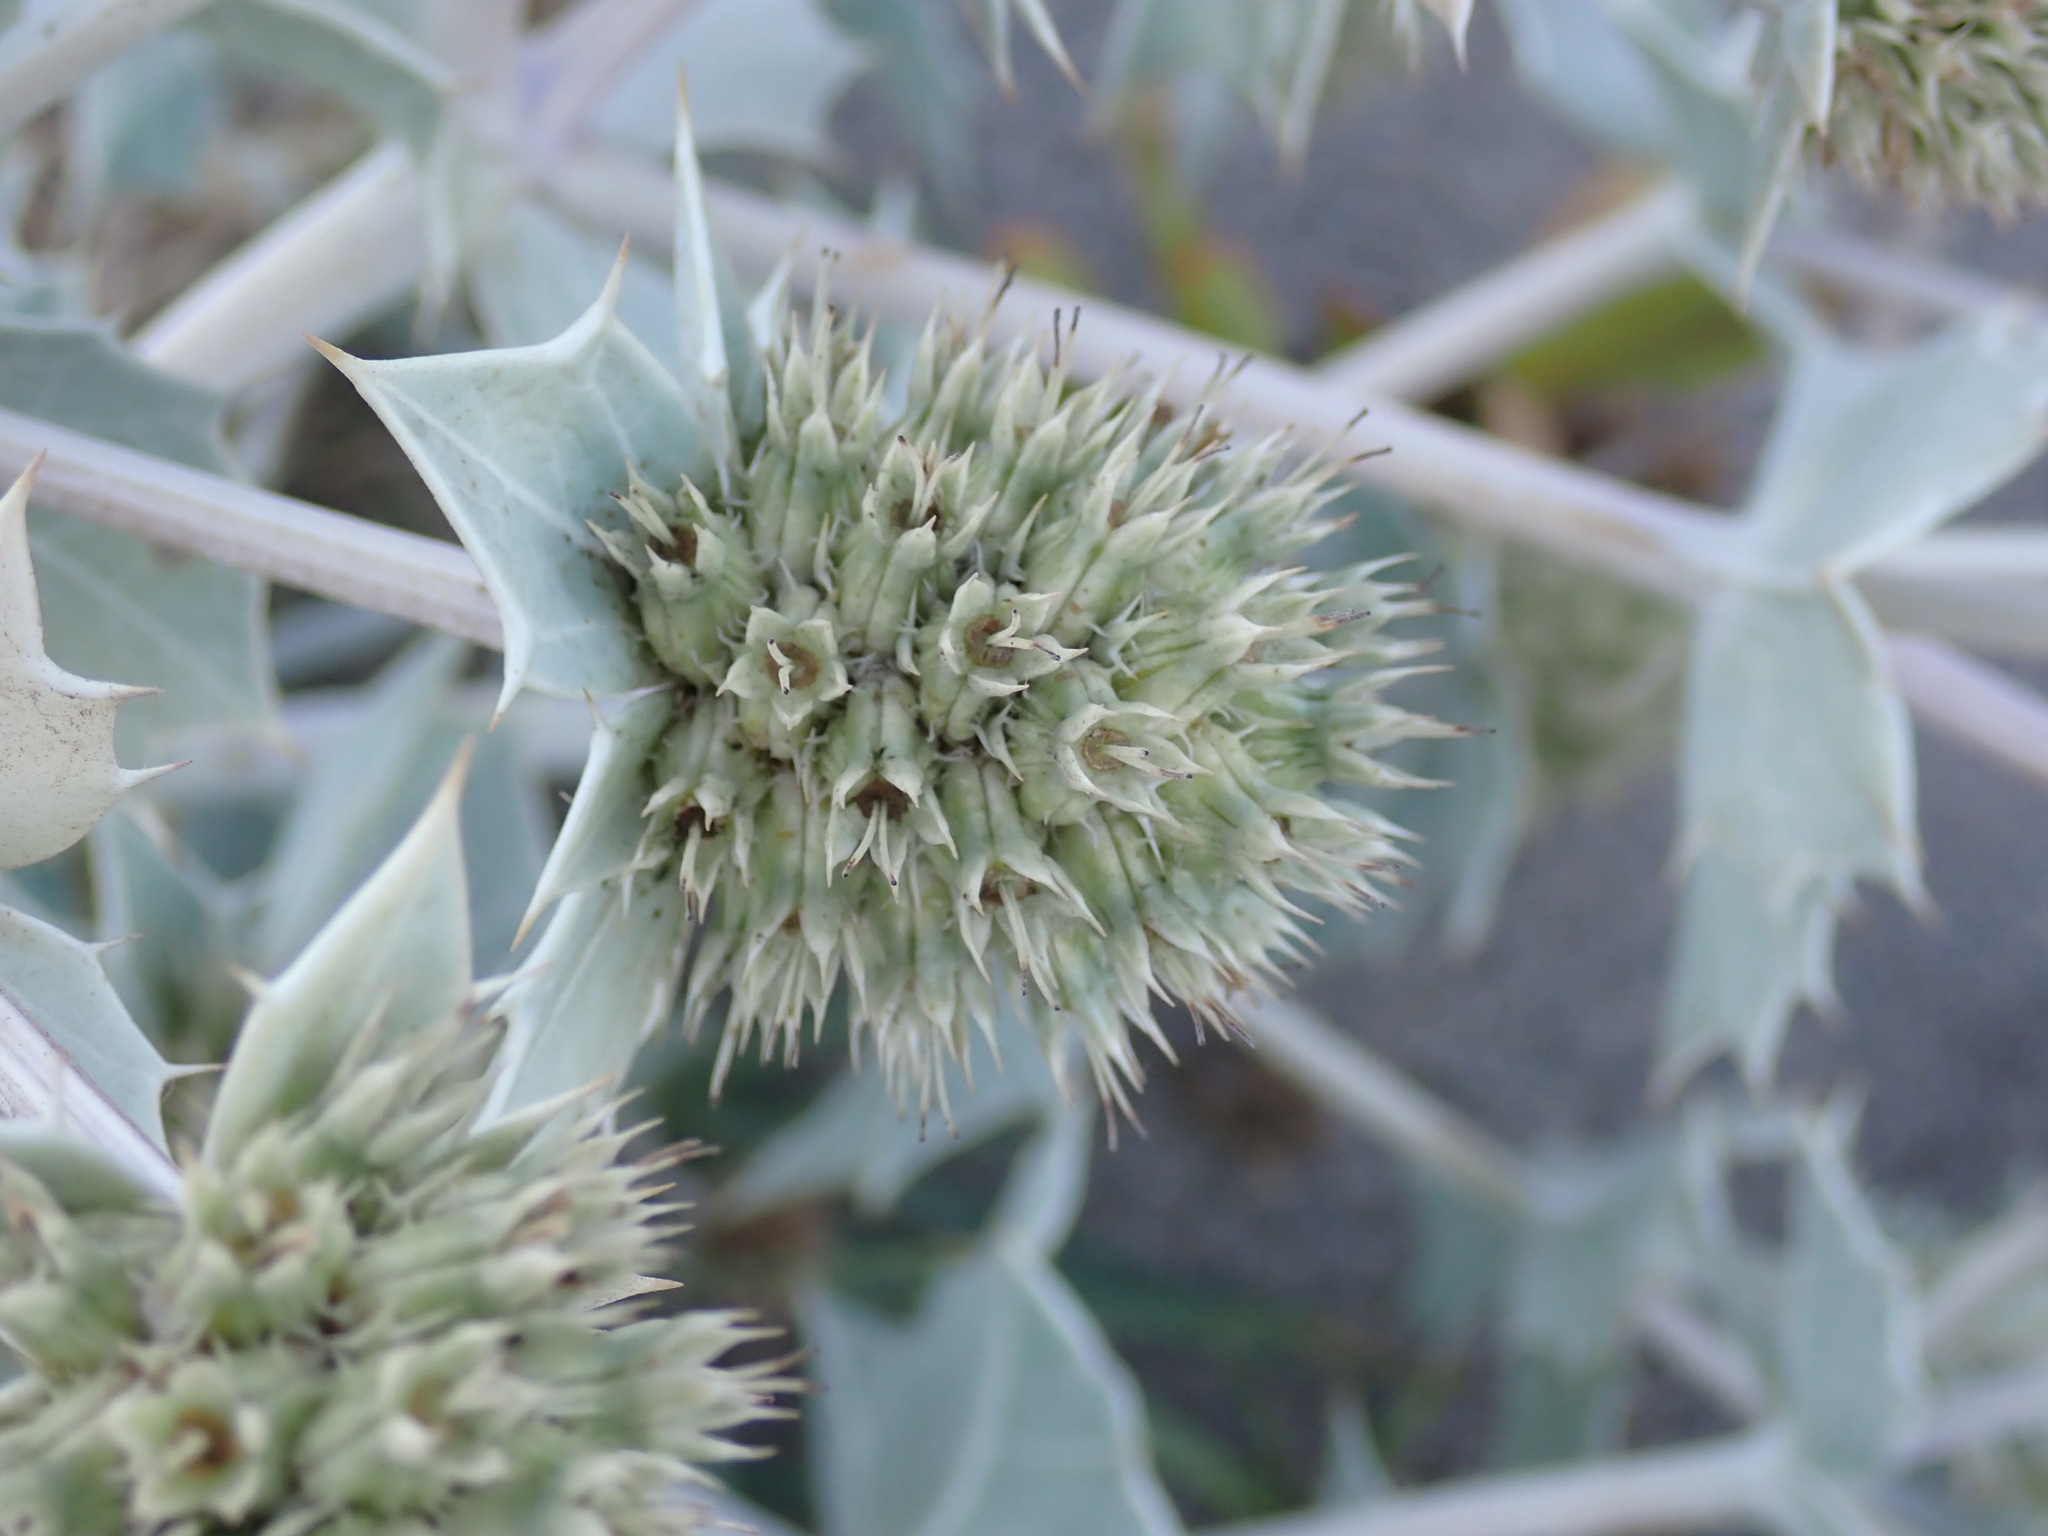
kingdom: Plantae
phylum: Tracheophyta
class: Magnoliopsida
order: Apiales
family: Apiaceae
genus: Eryngium
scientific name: Eryngium maritimum
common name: Sea-holly
